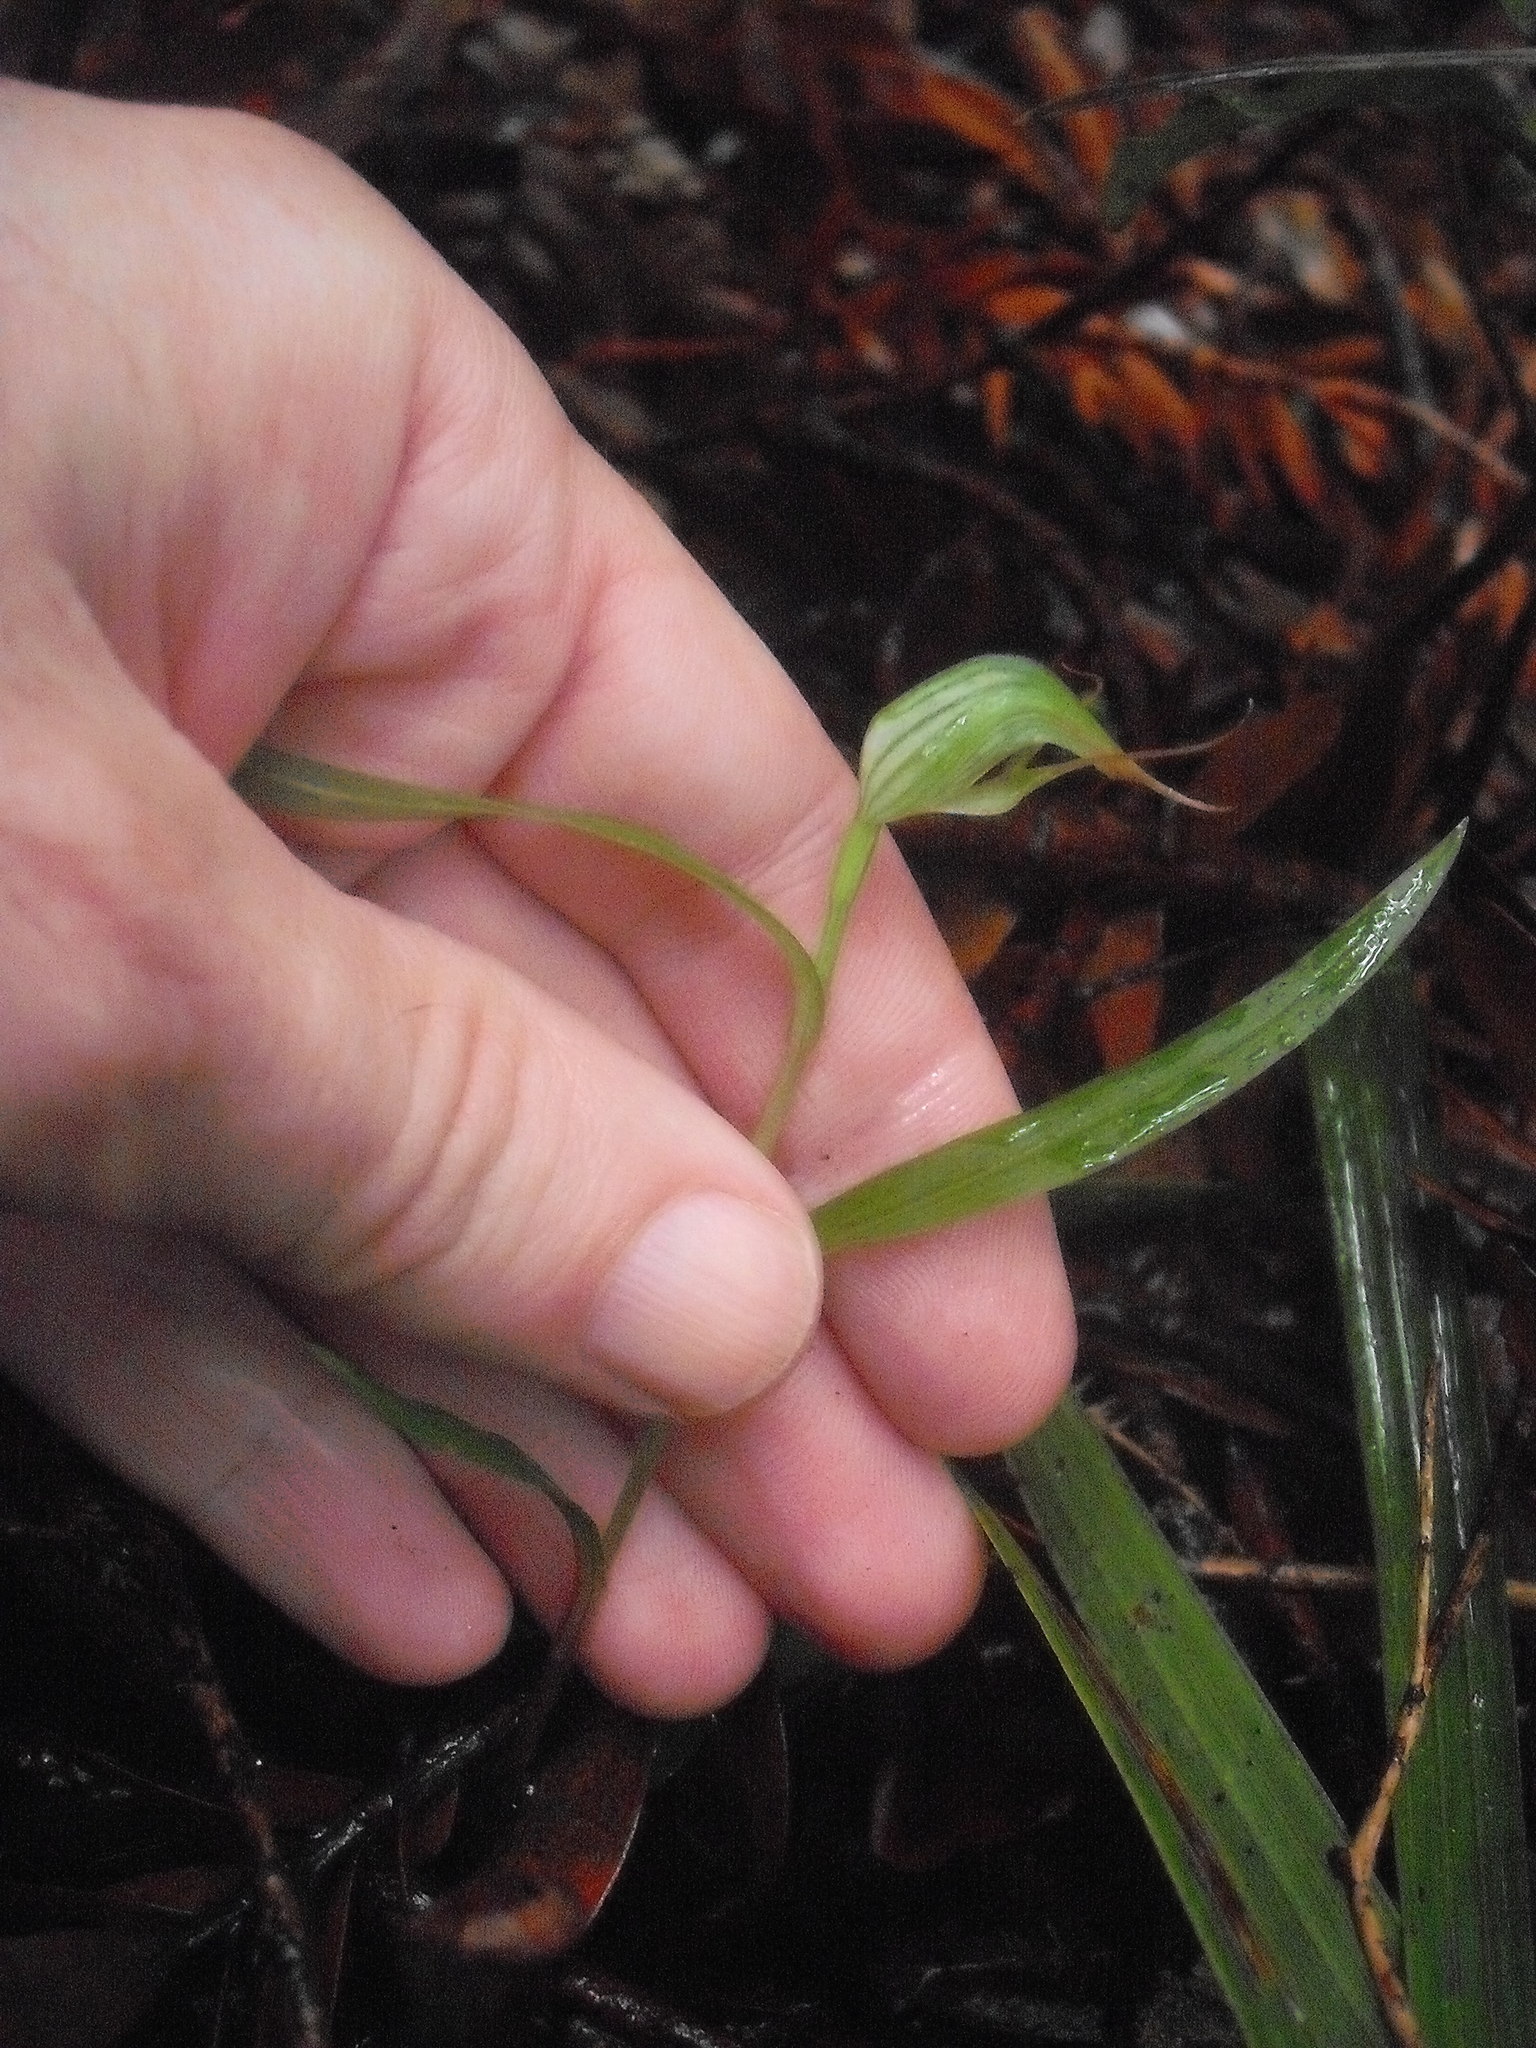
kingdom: Plantae
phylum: Tracheophyta
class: Liliopsida
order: Asparagales
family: Orchidaceae
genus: Pterostylis
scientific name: Pterostylis agathicola
